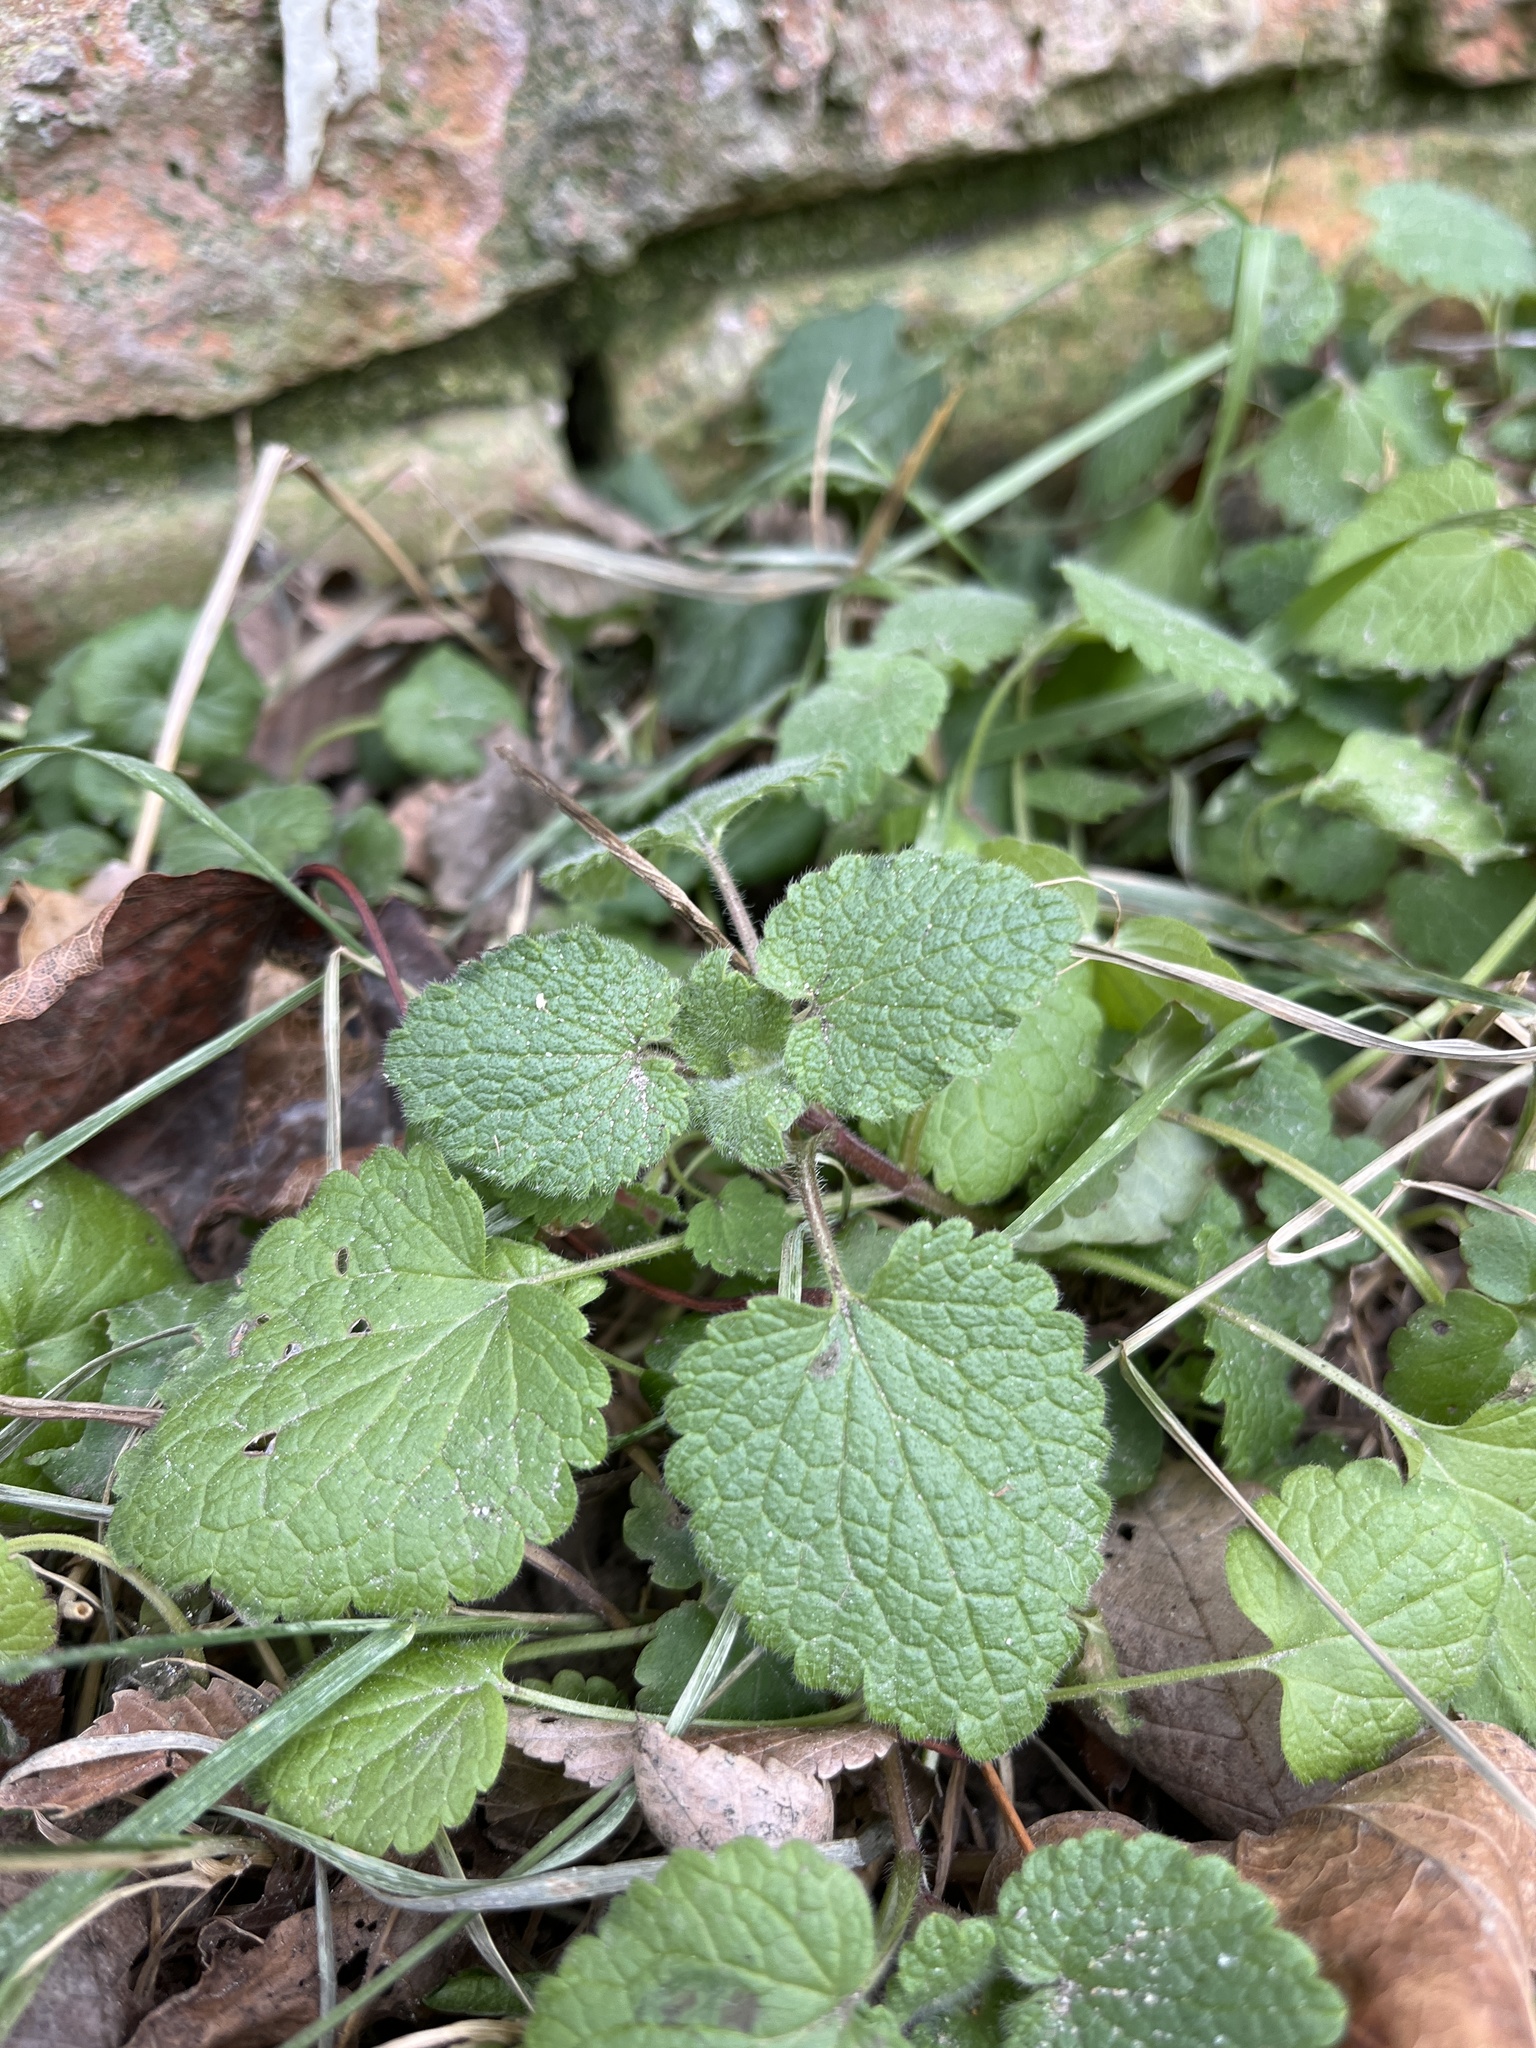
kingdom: Plantae
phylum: Tracheophyta
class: Magnoliopsida
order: Lamiales
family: Lamiaceae
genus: Lamium
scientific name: Lamium purpureum
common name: Red dead-nettle
